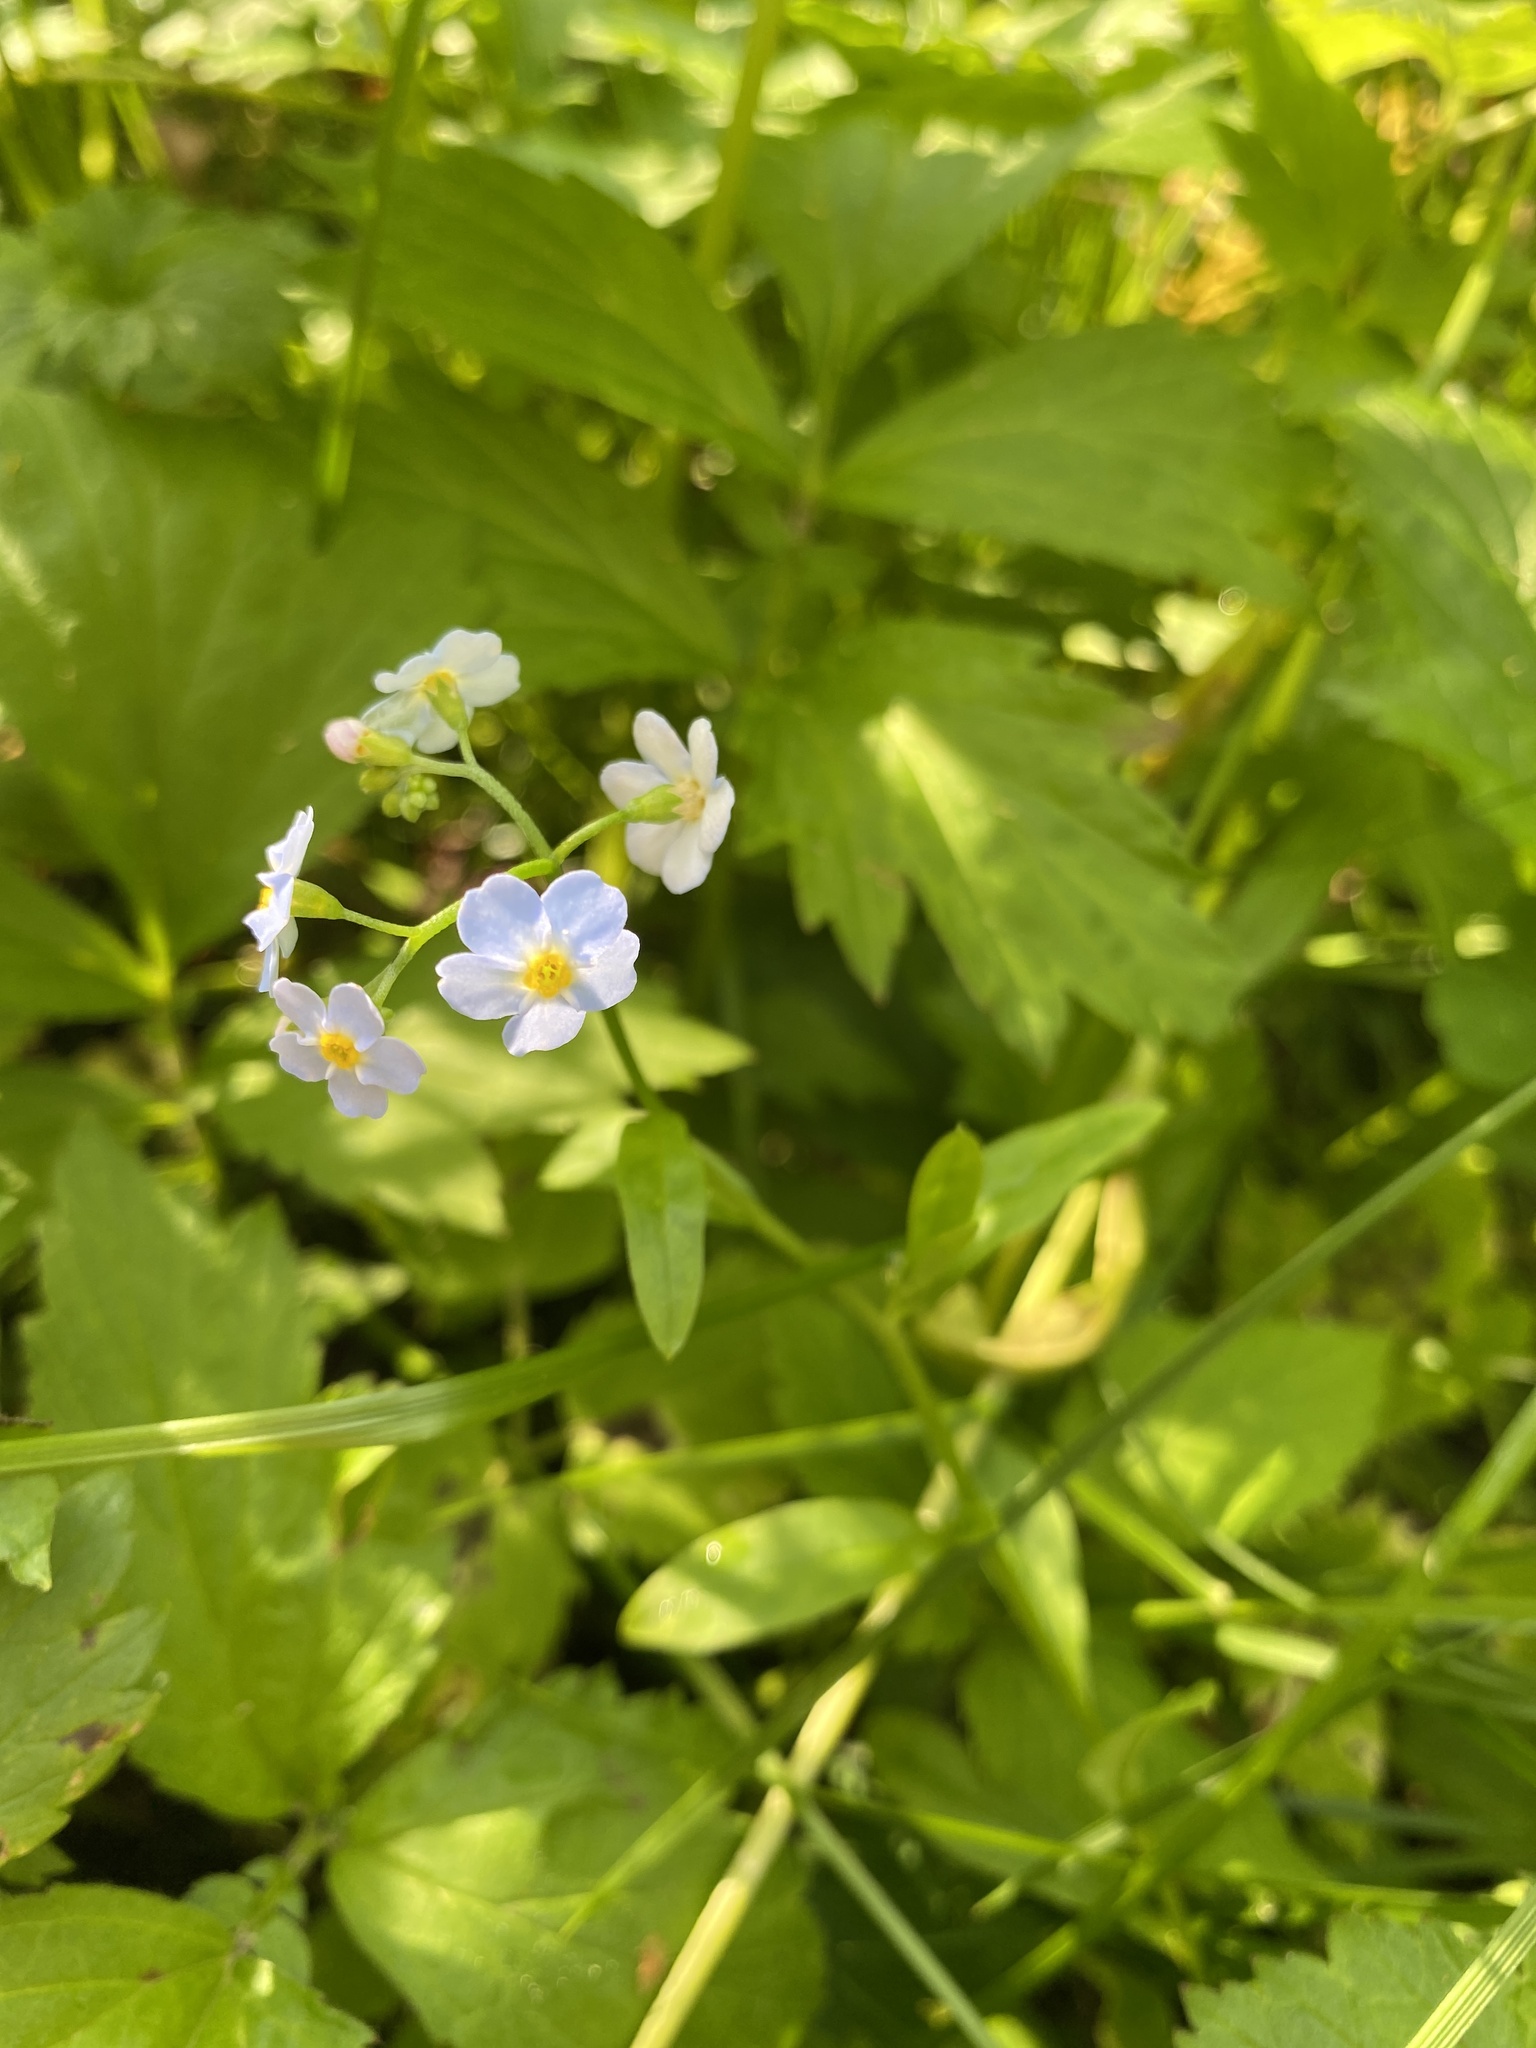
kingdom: Plantae
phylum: Tracheophyta
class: Magnoliopsida
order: Boraginales
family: Boraginaceae
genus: Myosotis
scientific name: Myosotis scorpioides
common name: Water forget-me-not
